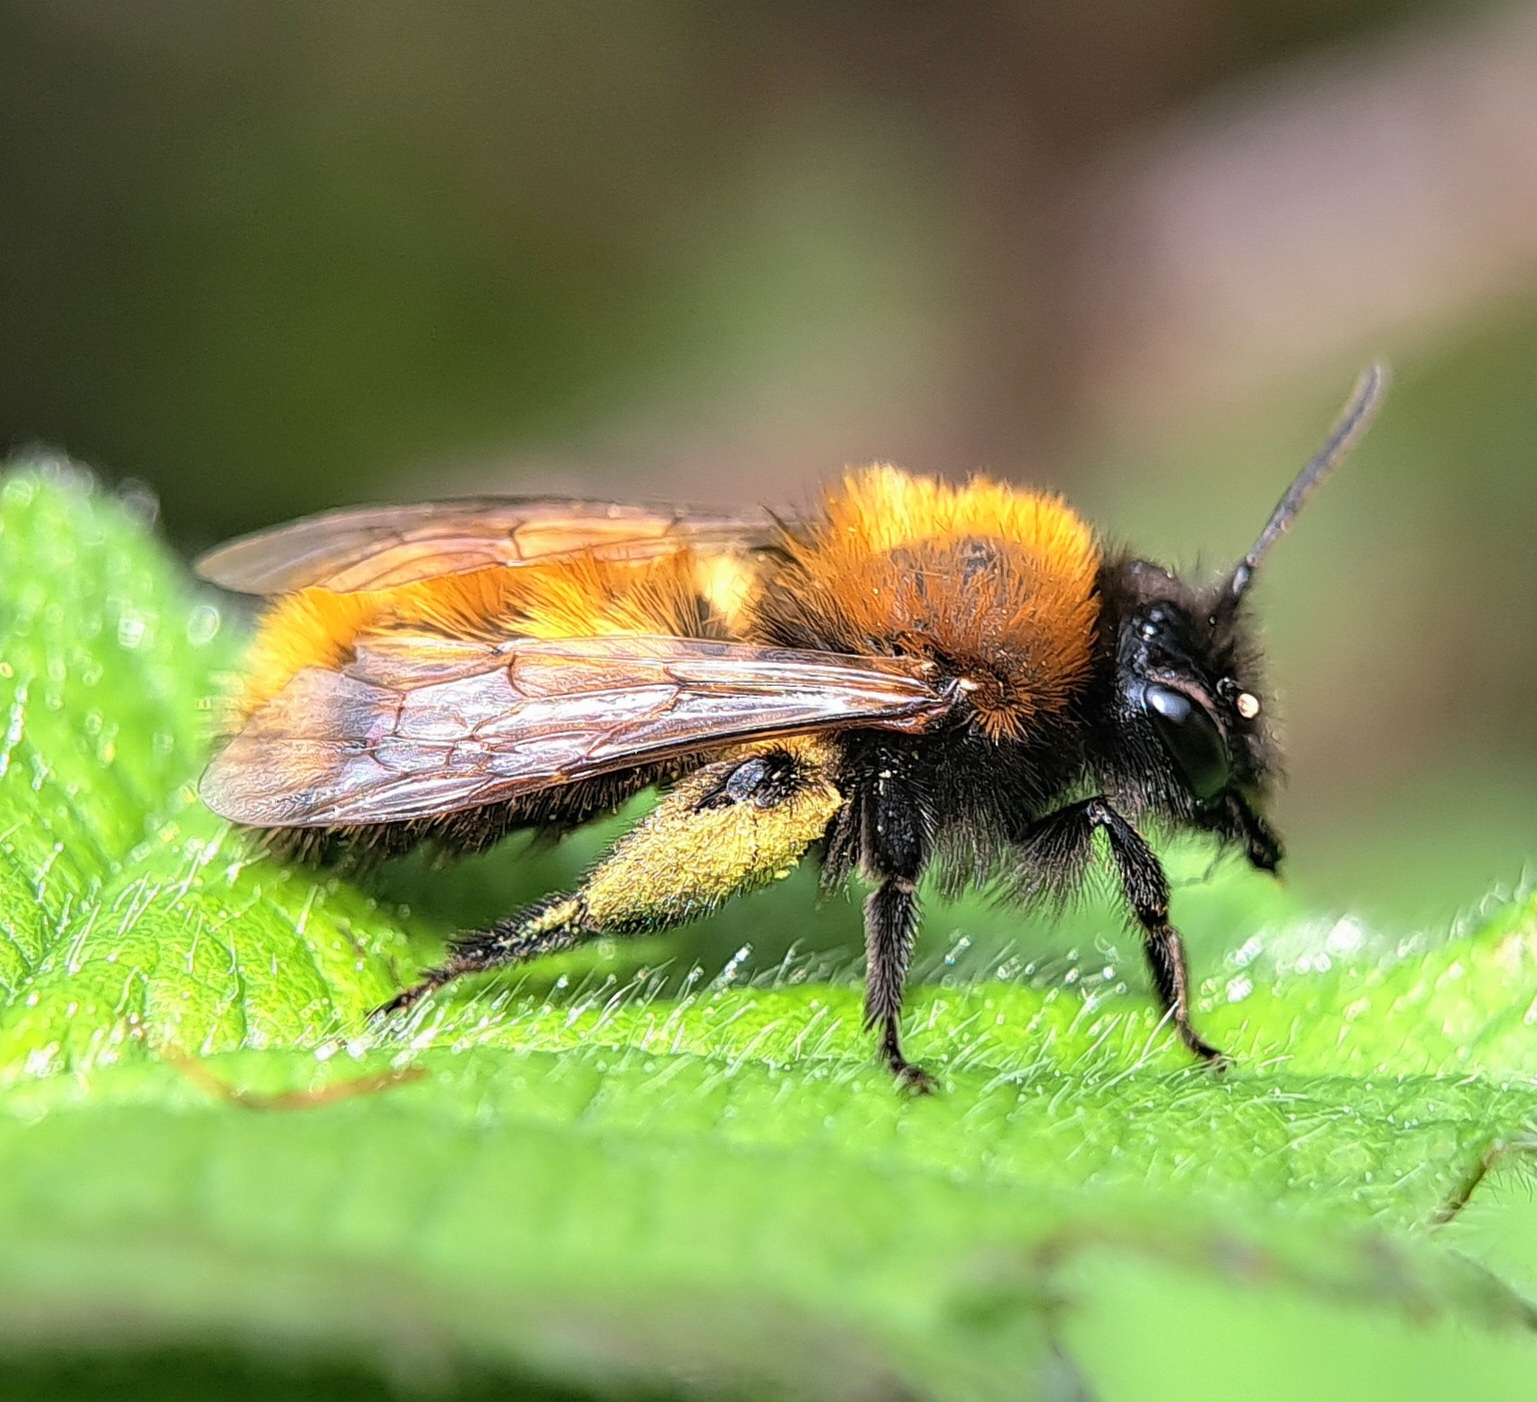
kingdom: Animalia
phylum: Arthropoda
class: Insecta
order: Hymenoptera
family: Andrenidae
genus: Andrena
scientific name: Andrena fulva
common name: Tawny mining bee
